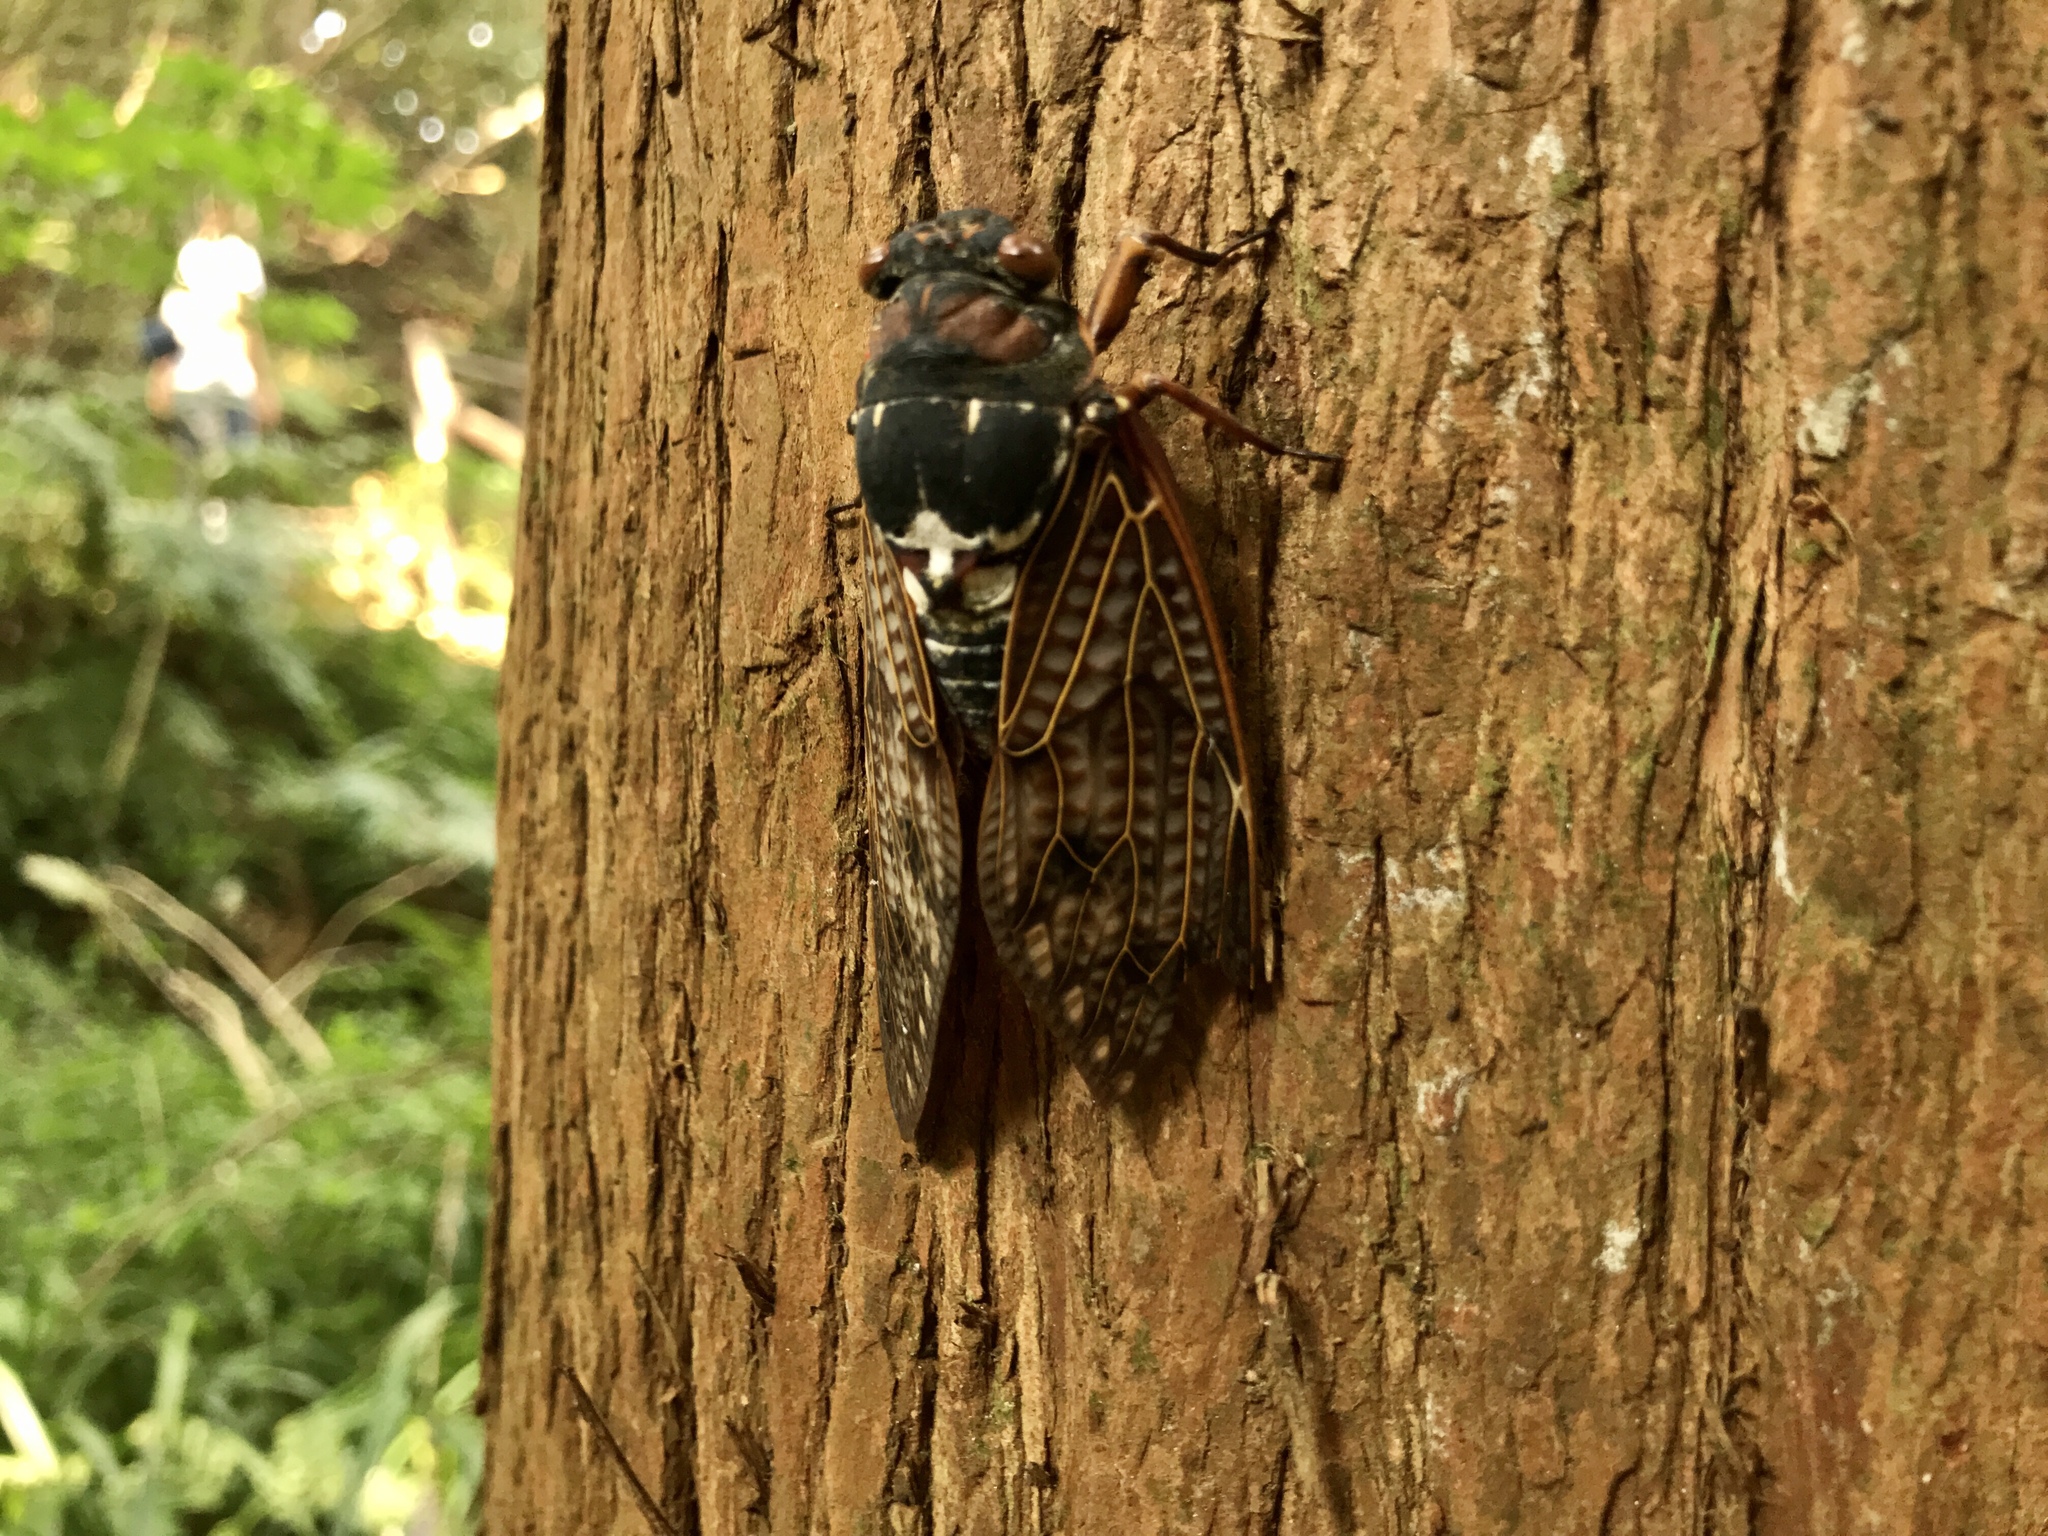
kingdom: Animalia
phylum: Arthropoda
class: Insecta
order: Hemiptera
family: Cicadidae
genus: Graptopsaltria
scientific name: Graptopsaltria nigrofuscata
